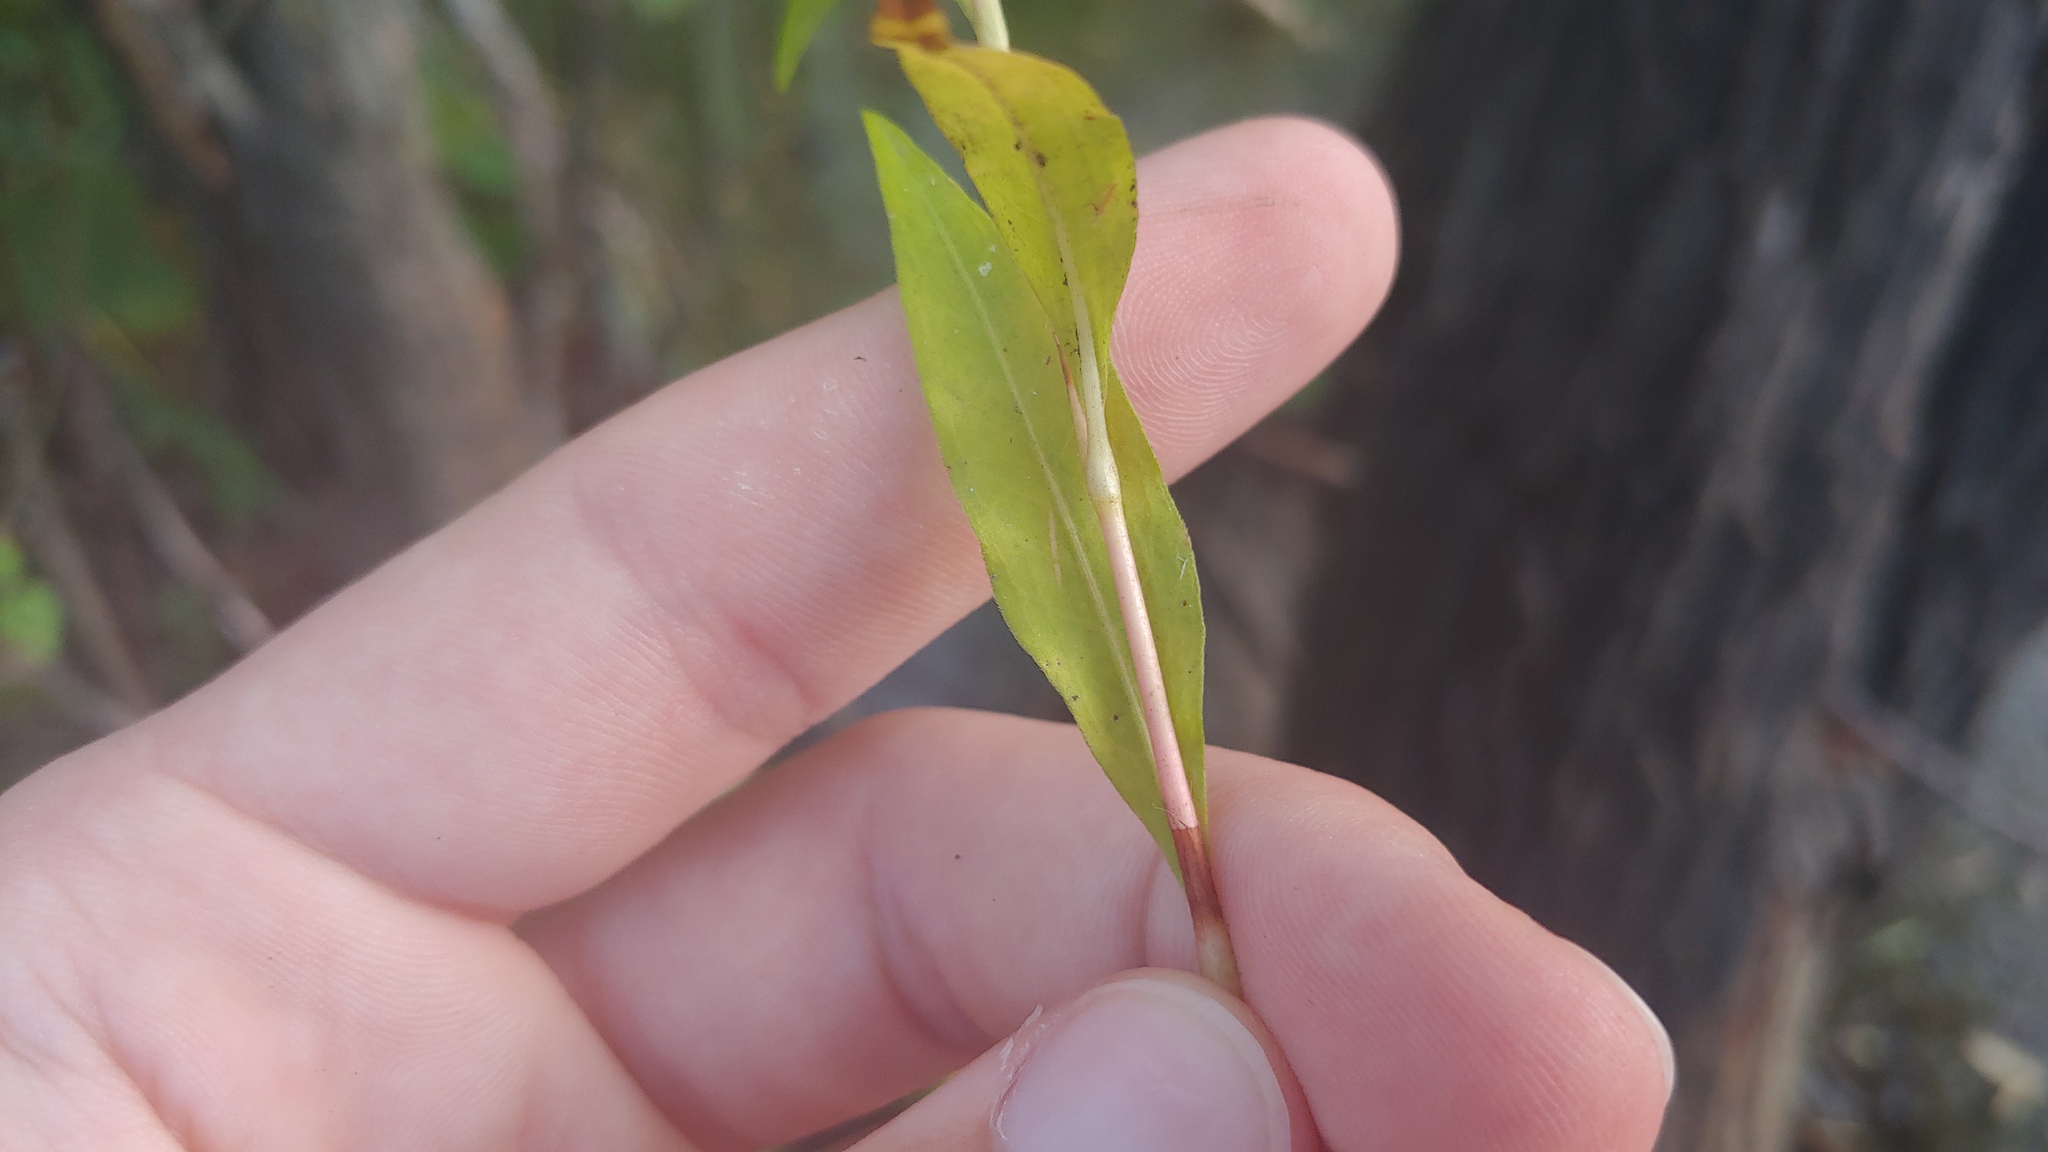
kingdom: Plantae
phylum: Tracheophyta
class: Magnoliopsida
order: Caryophyllales
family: Polygonaceae
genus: Persicaria
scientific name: Persicaria punctata
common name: Dotted smartweed
